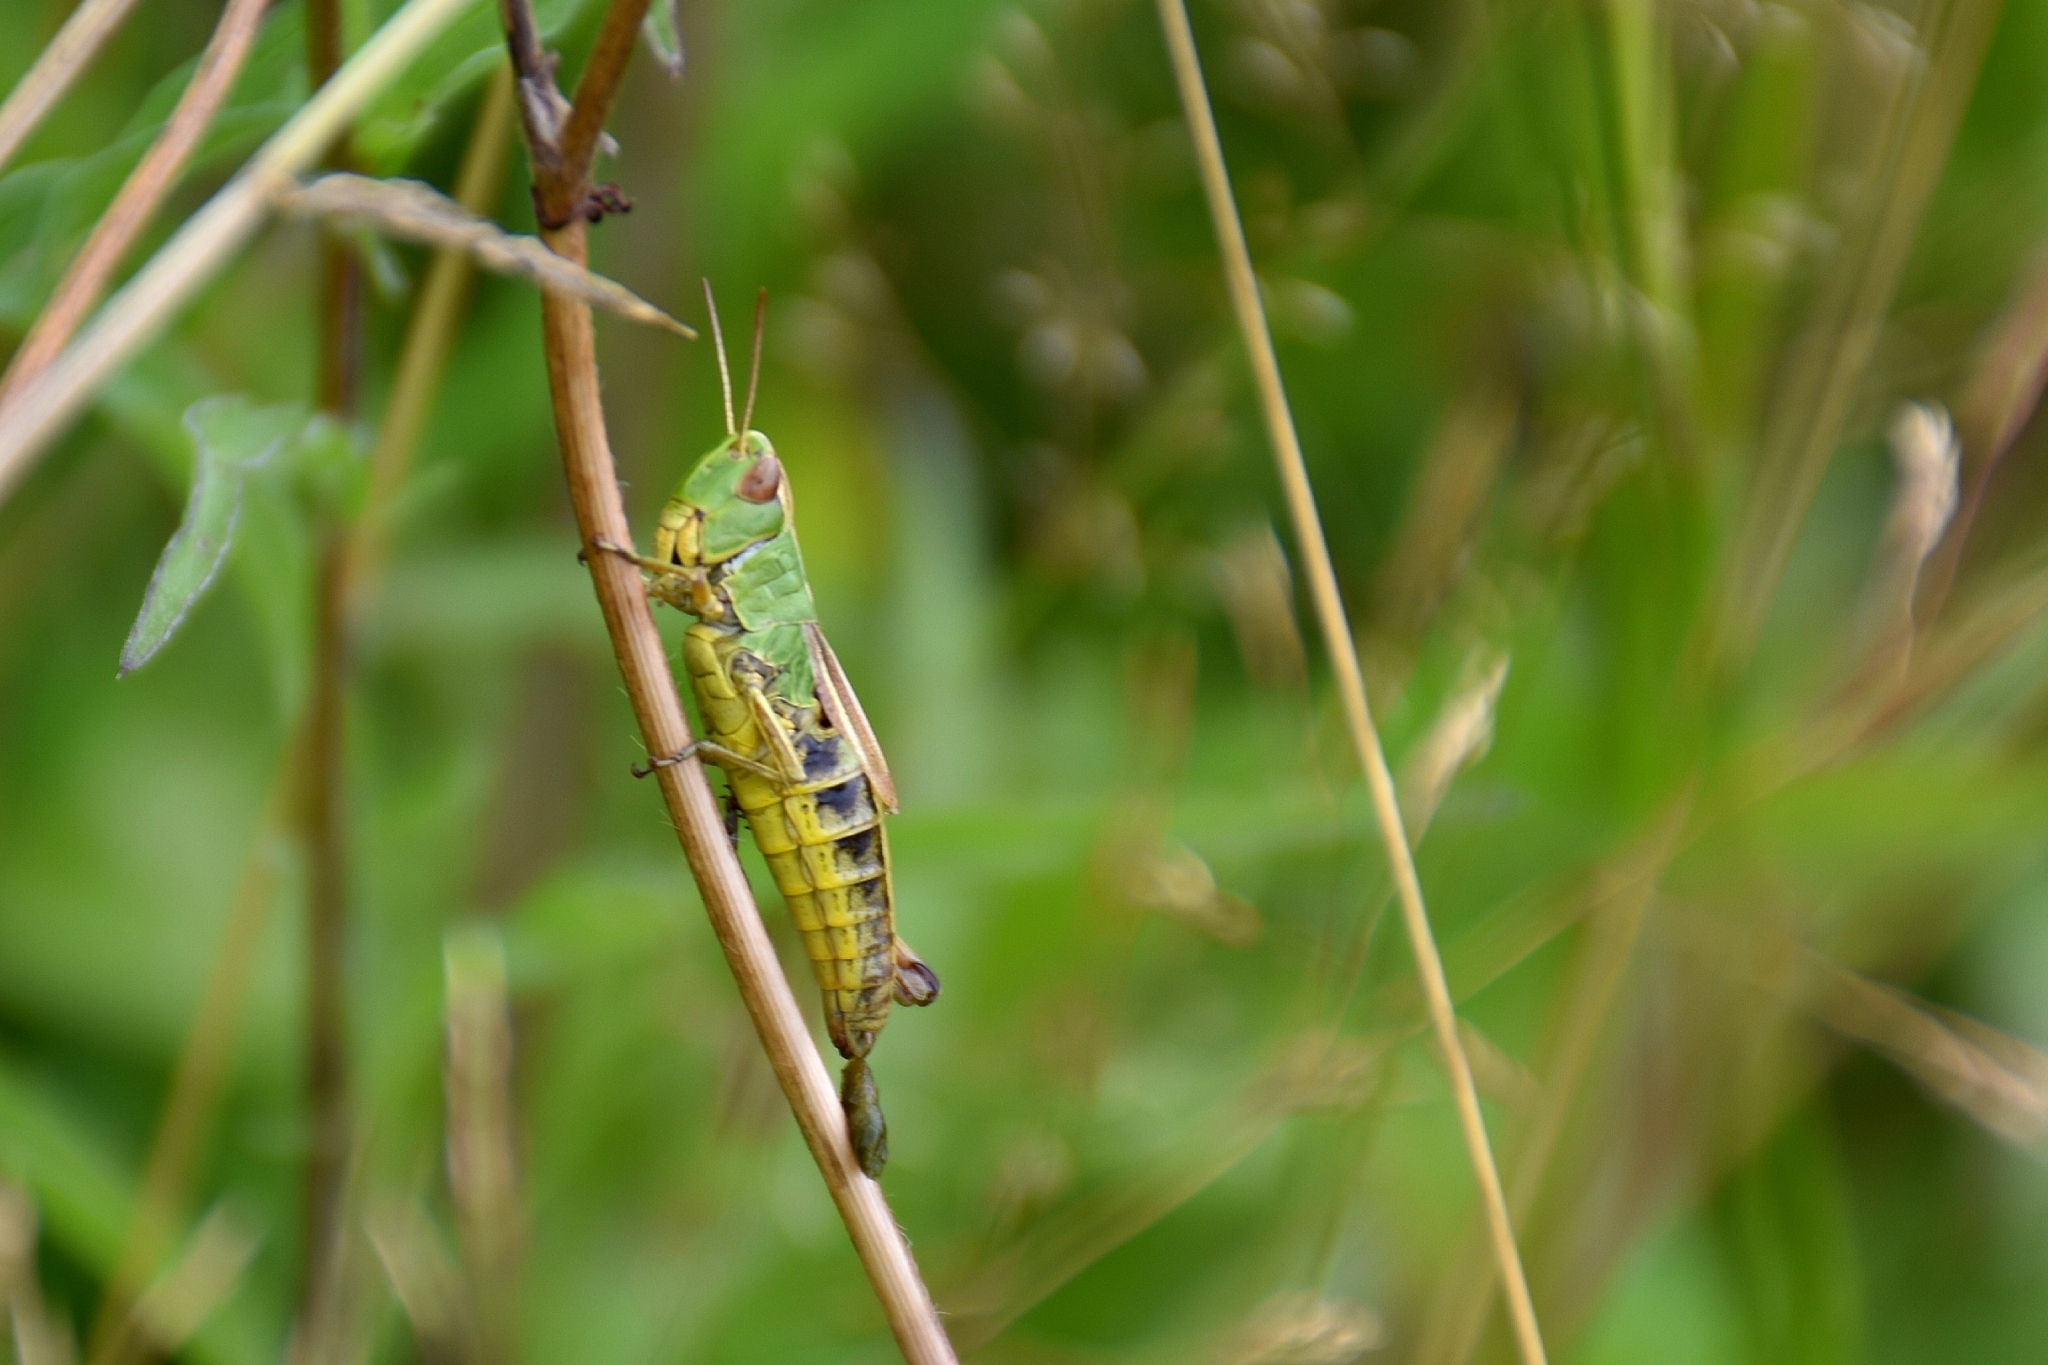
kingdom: Animalia
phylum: Arthropoda
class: Insecta
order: Orthoptera
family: Acrididae
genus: Pseudochorthippus
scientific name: Pseudochorthippus parallelus
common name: Meadow grasshopper
